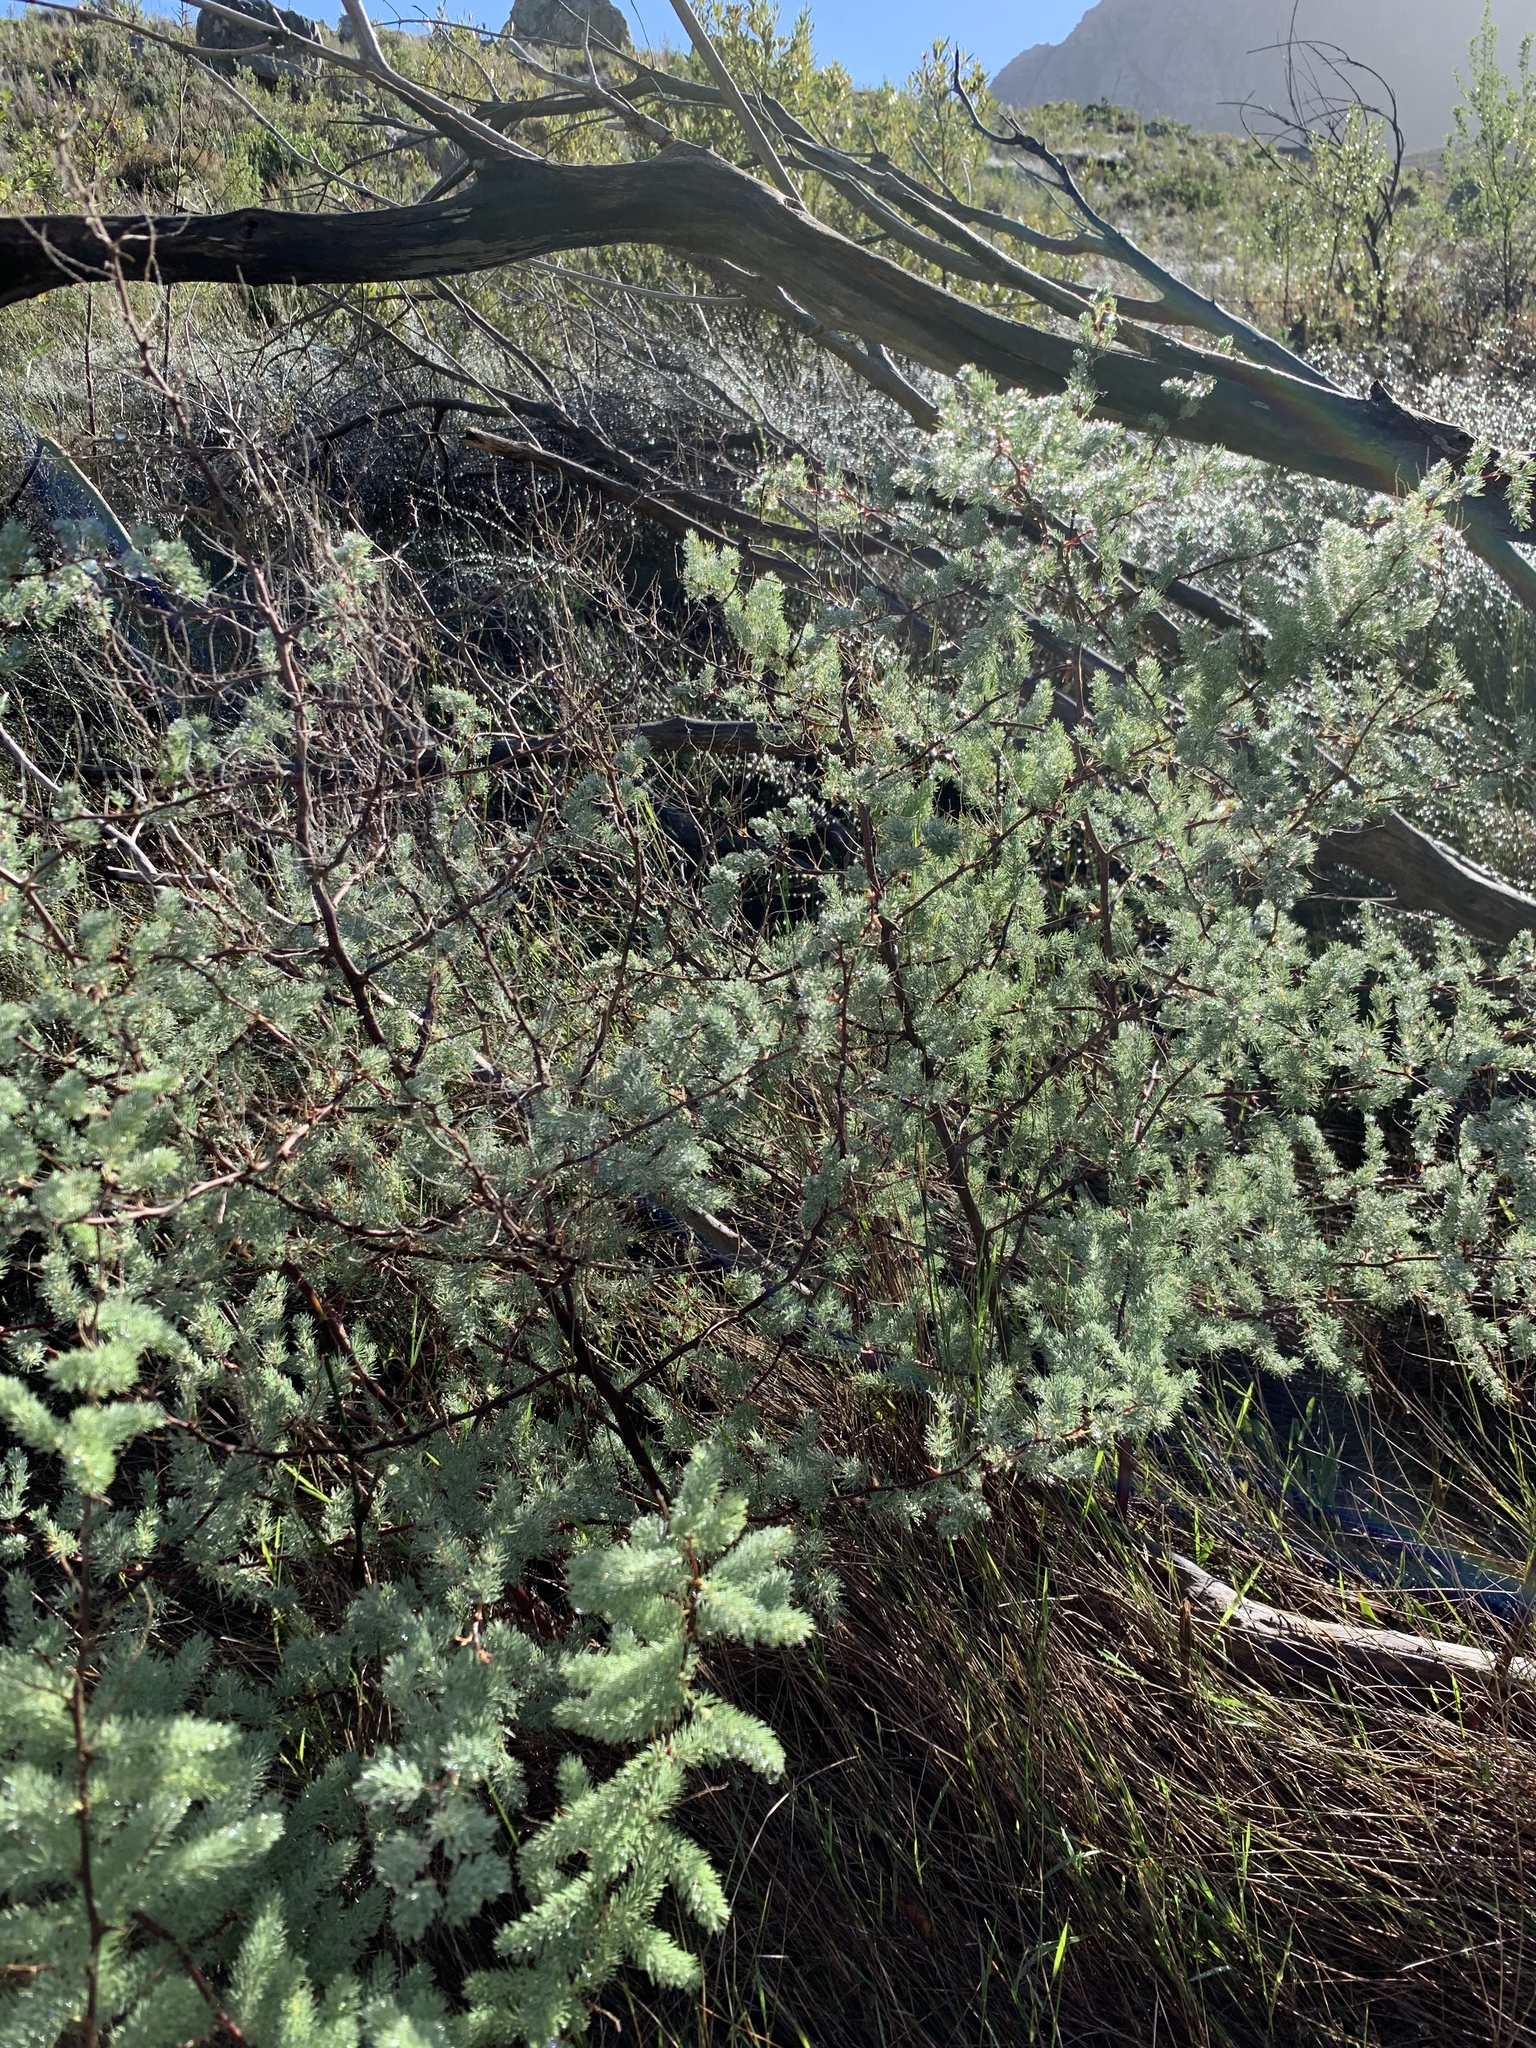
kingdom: Plantae
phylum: Tracheophyta
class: Liliopsida
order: Asparagales
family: Asparagaceae
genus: Asparagus
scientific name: Asparagus rubicundus
